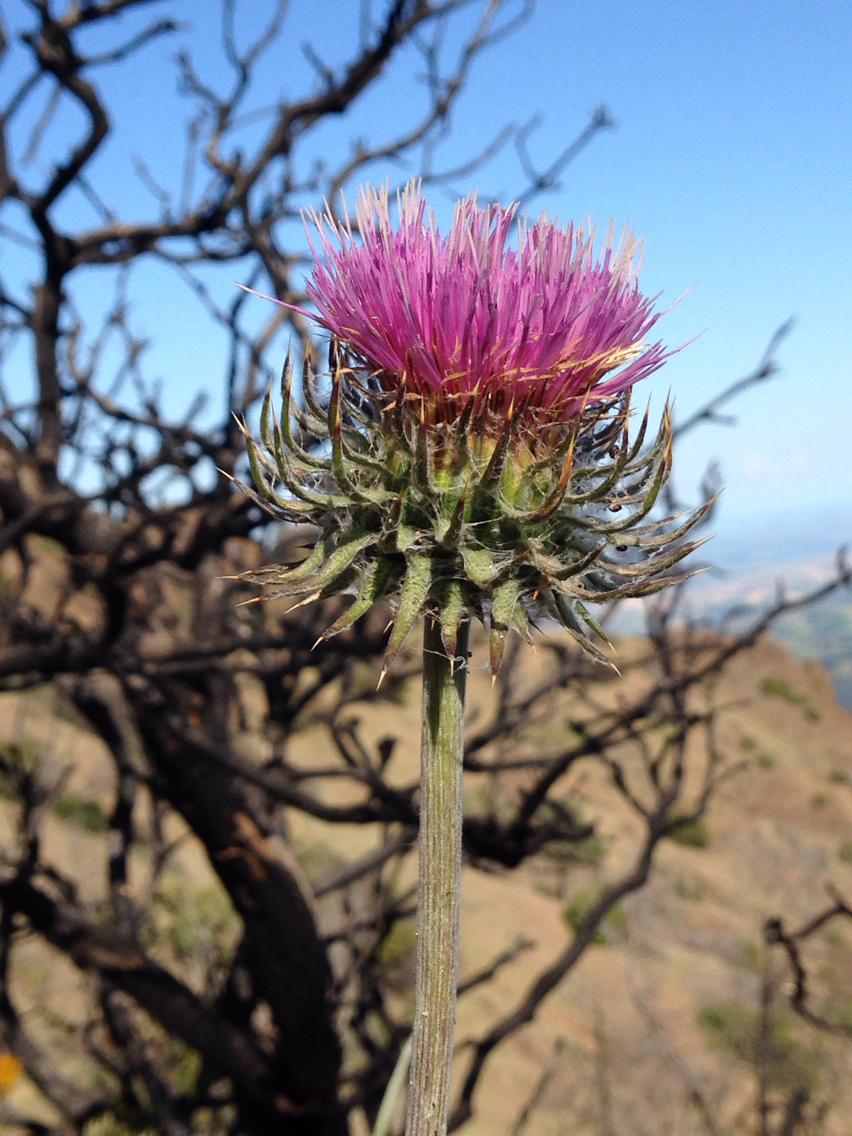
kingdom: Plantae
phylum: Tracheophyta
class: Magnoliopsida
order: Asterales
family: Asteraceae
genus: Cirsium
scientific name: Cirsium occidentale
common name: Western thistle
